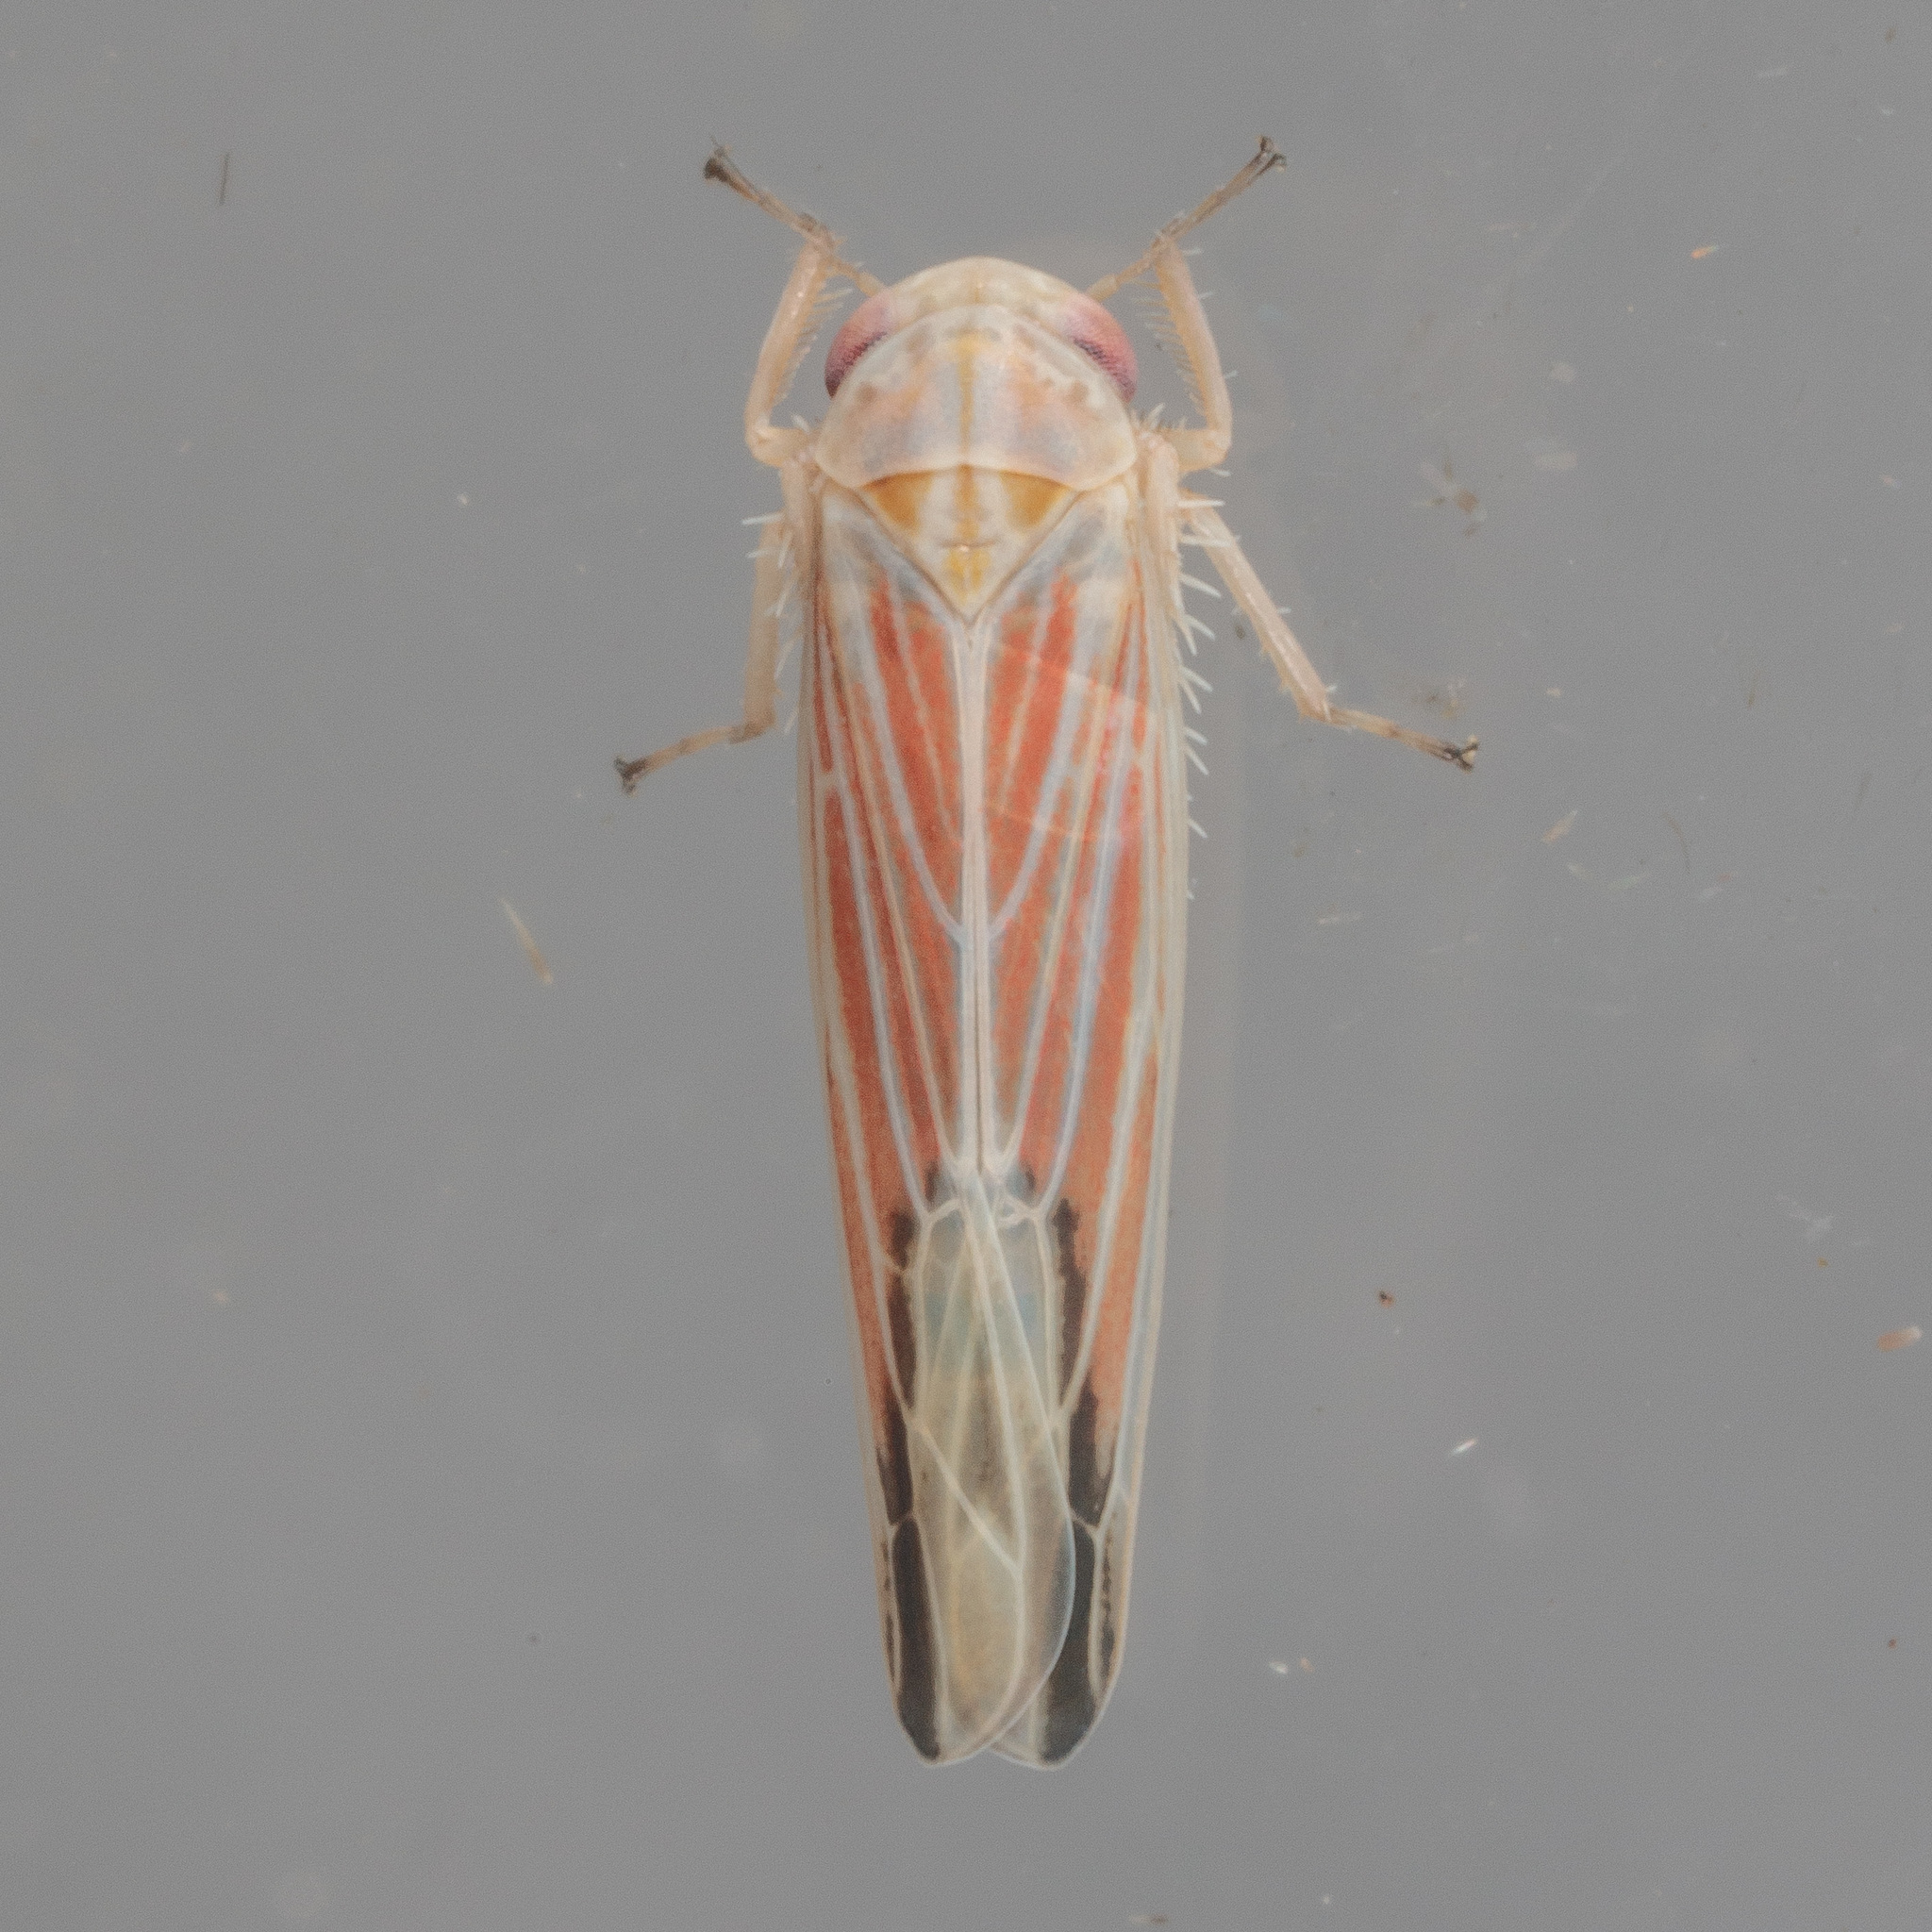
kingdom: Animalia
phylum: Arthropoda
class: Insecta
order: Hemiptera
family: Cicadellidae
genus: Balclutha
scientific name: Balclutha rubrostriata
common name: Red-streaked leafhopper
